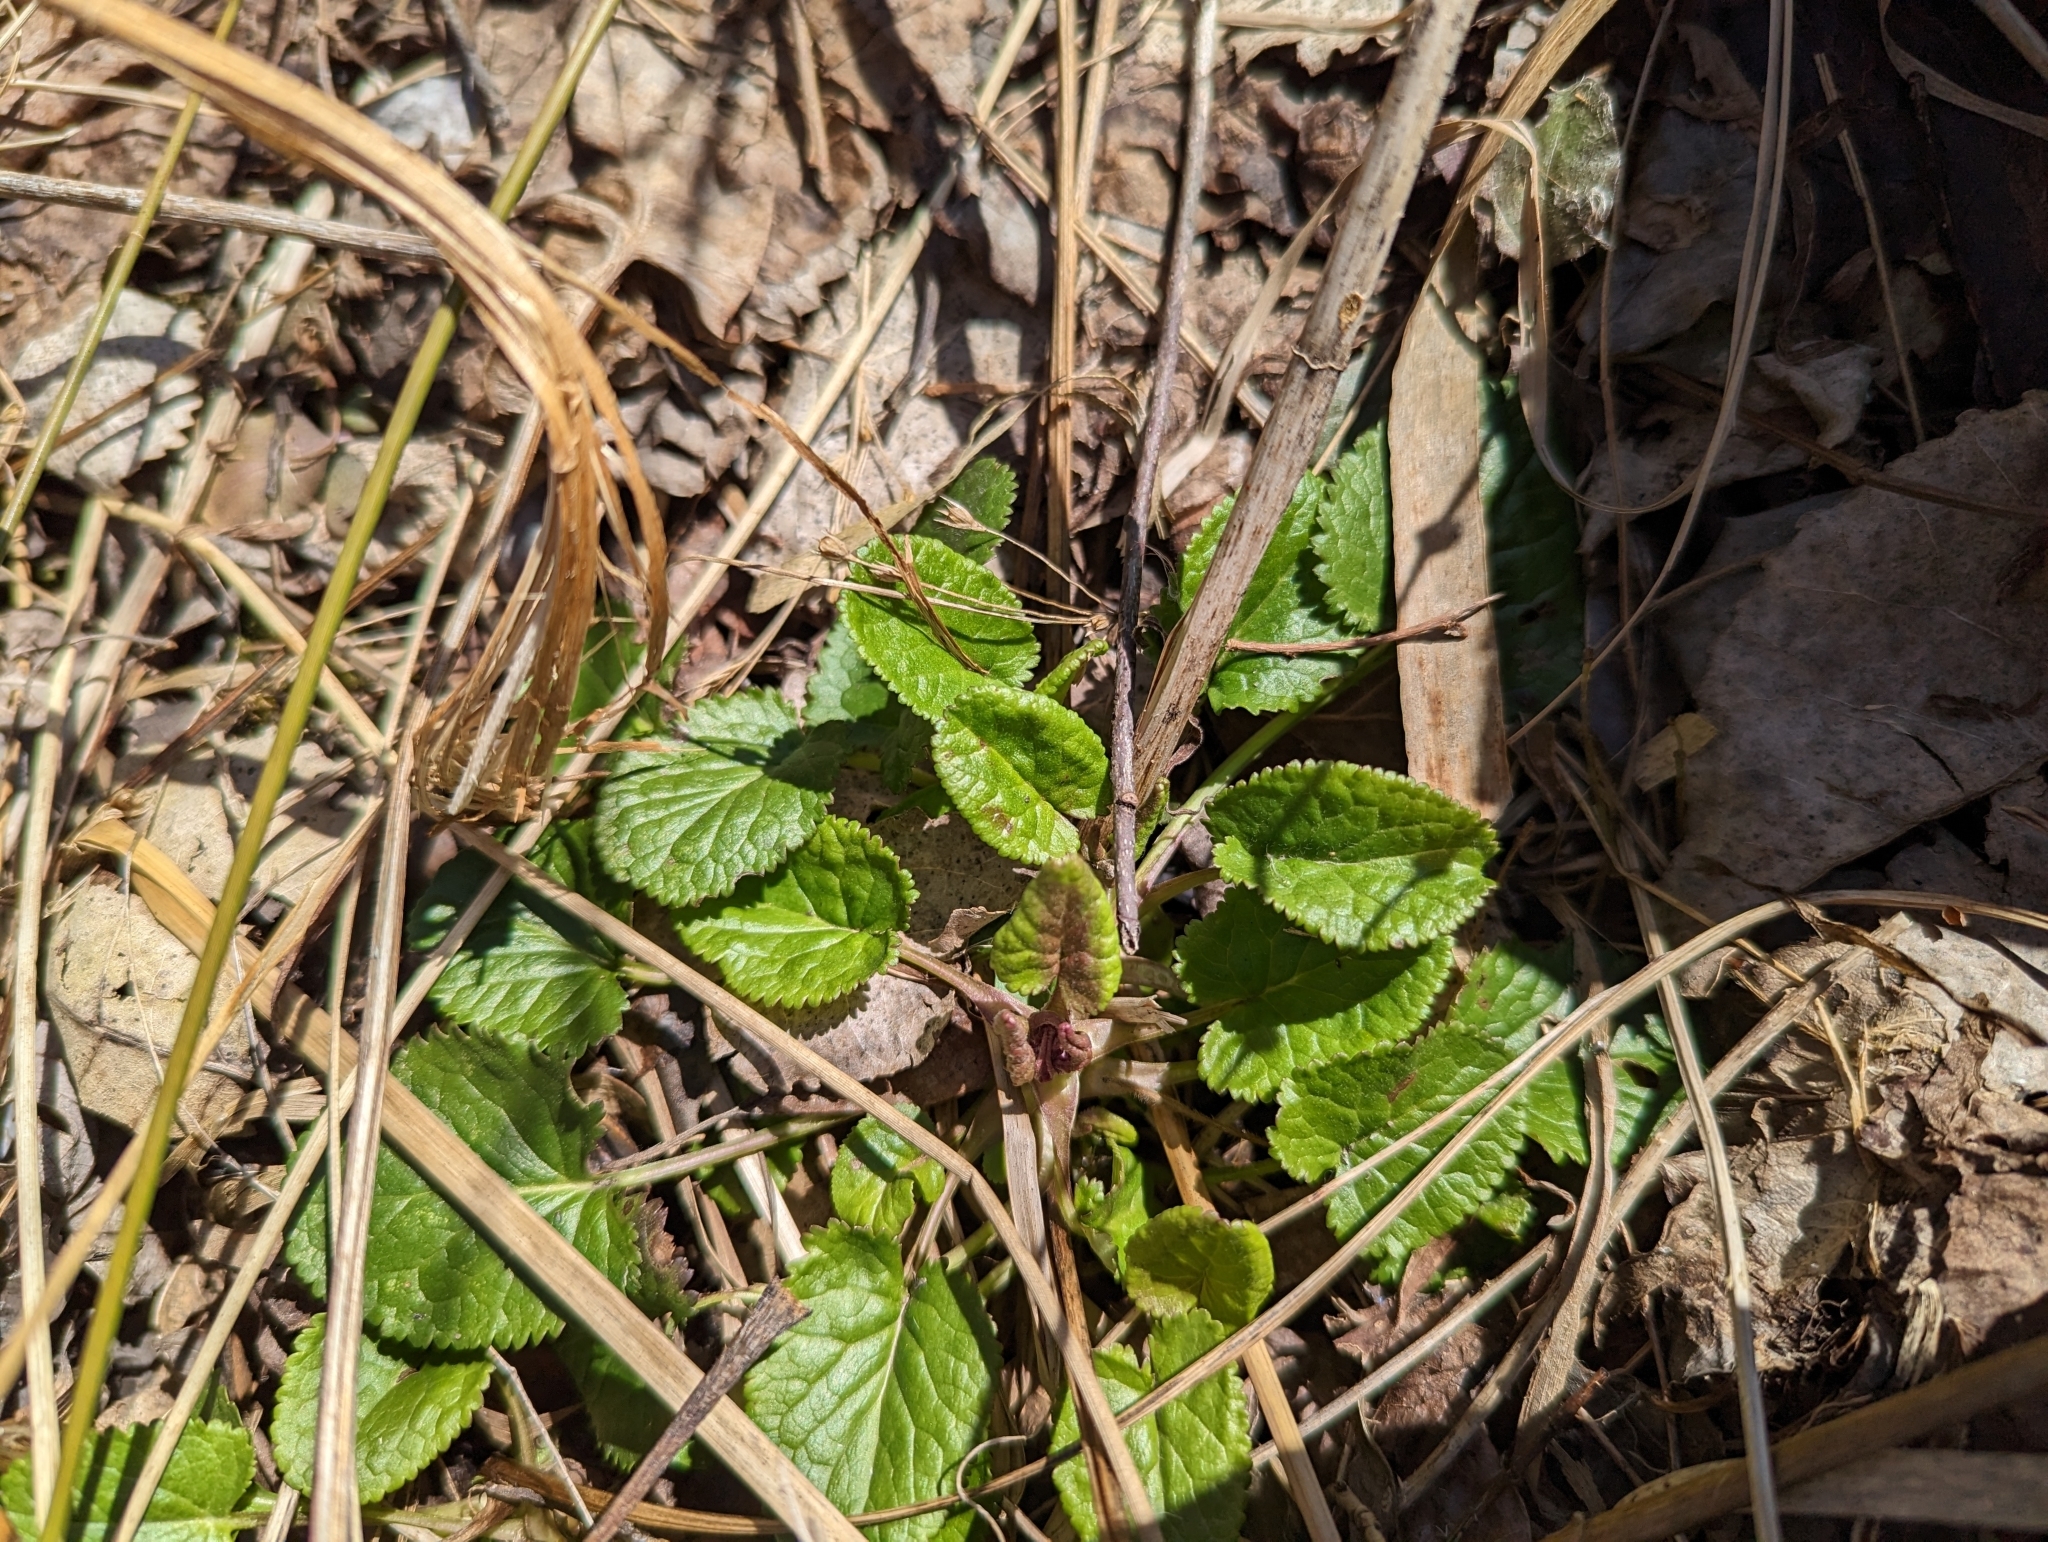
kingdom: Plantae
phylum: Tracheophyta
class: Magnoliopsida
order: Asterales
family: Asteraceae
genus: Packera
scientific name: Packera aurea
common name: Golden groundsel
